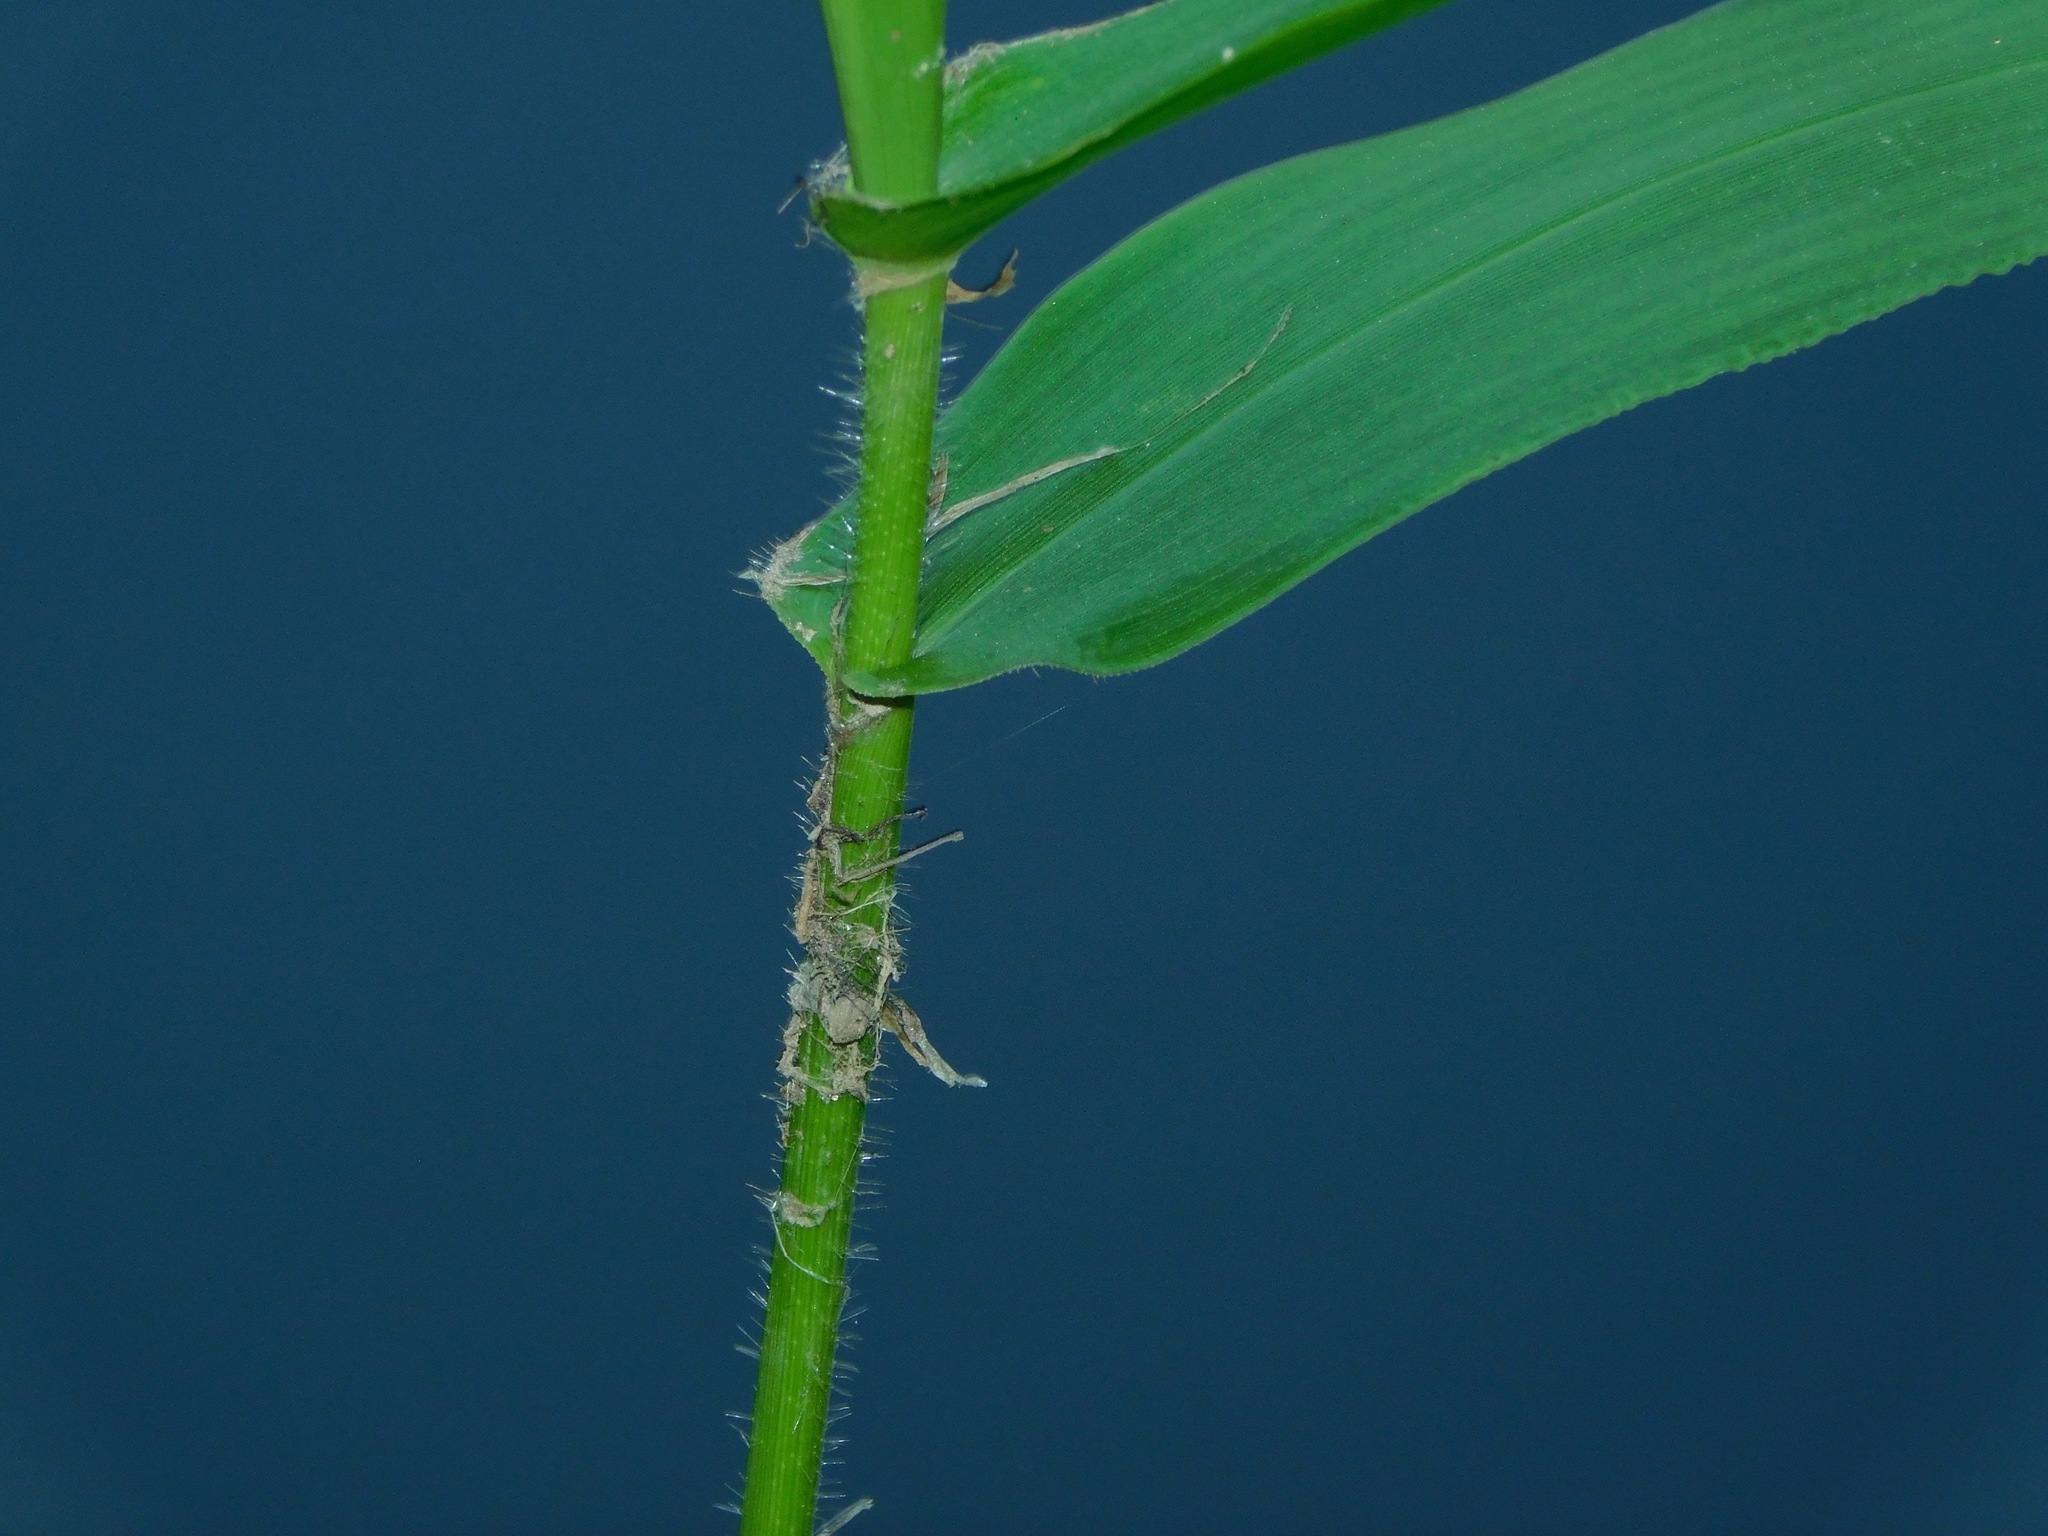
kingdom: Plantae
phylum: Tracheophyta
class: Liliopsida
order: Poales
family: Poaceae
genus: Dichanthelium
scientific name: Dichanthelium clandestinum
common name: Deer-tongue grass
